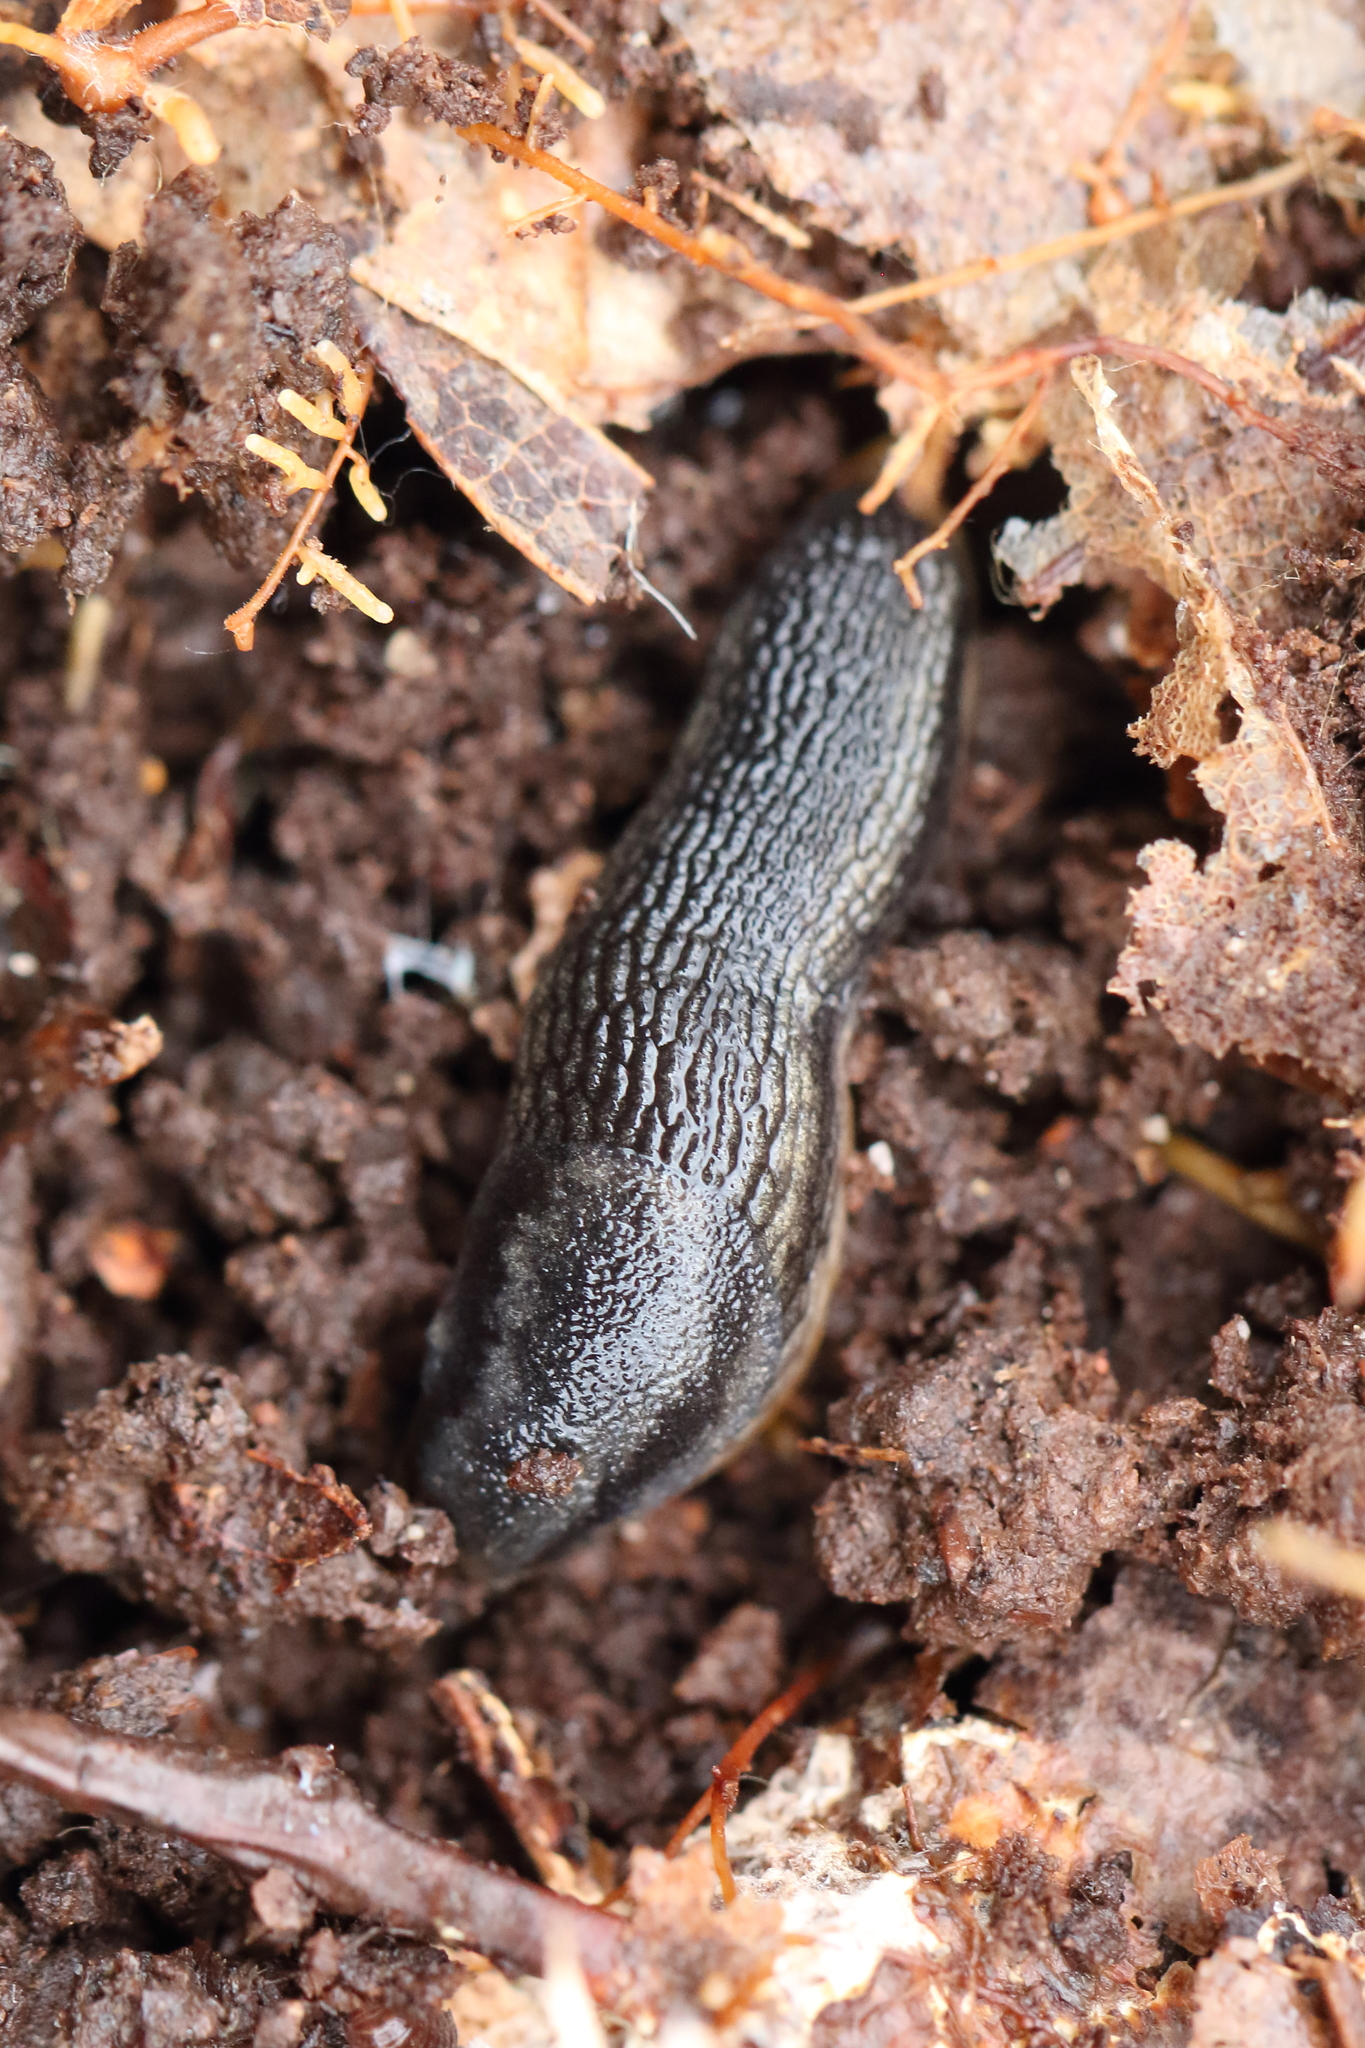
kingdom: Animalia
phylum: Mollusca
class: Gastropoda
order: Stylommatophora
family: Arionidae
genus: Arion
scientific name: Arion hortensis
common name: Garden arion
